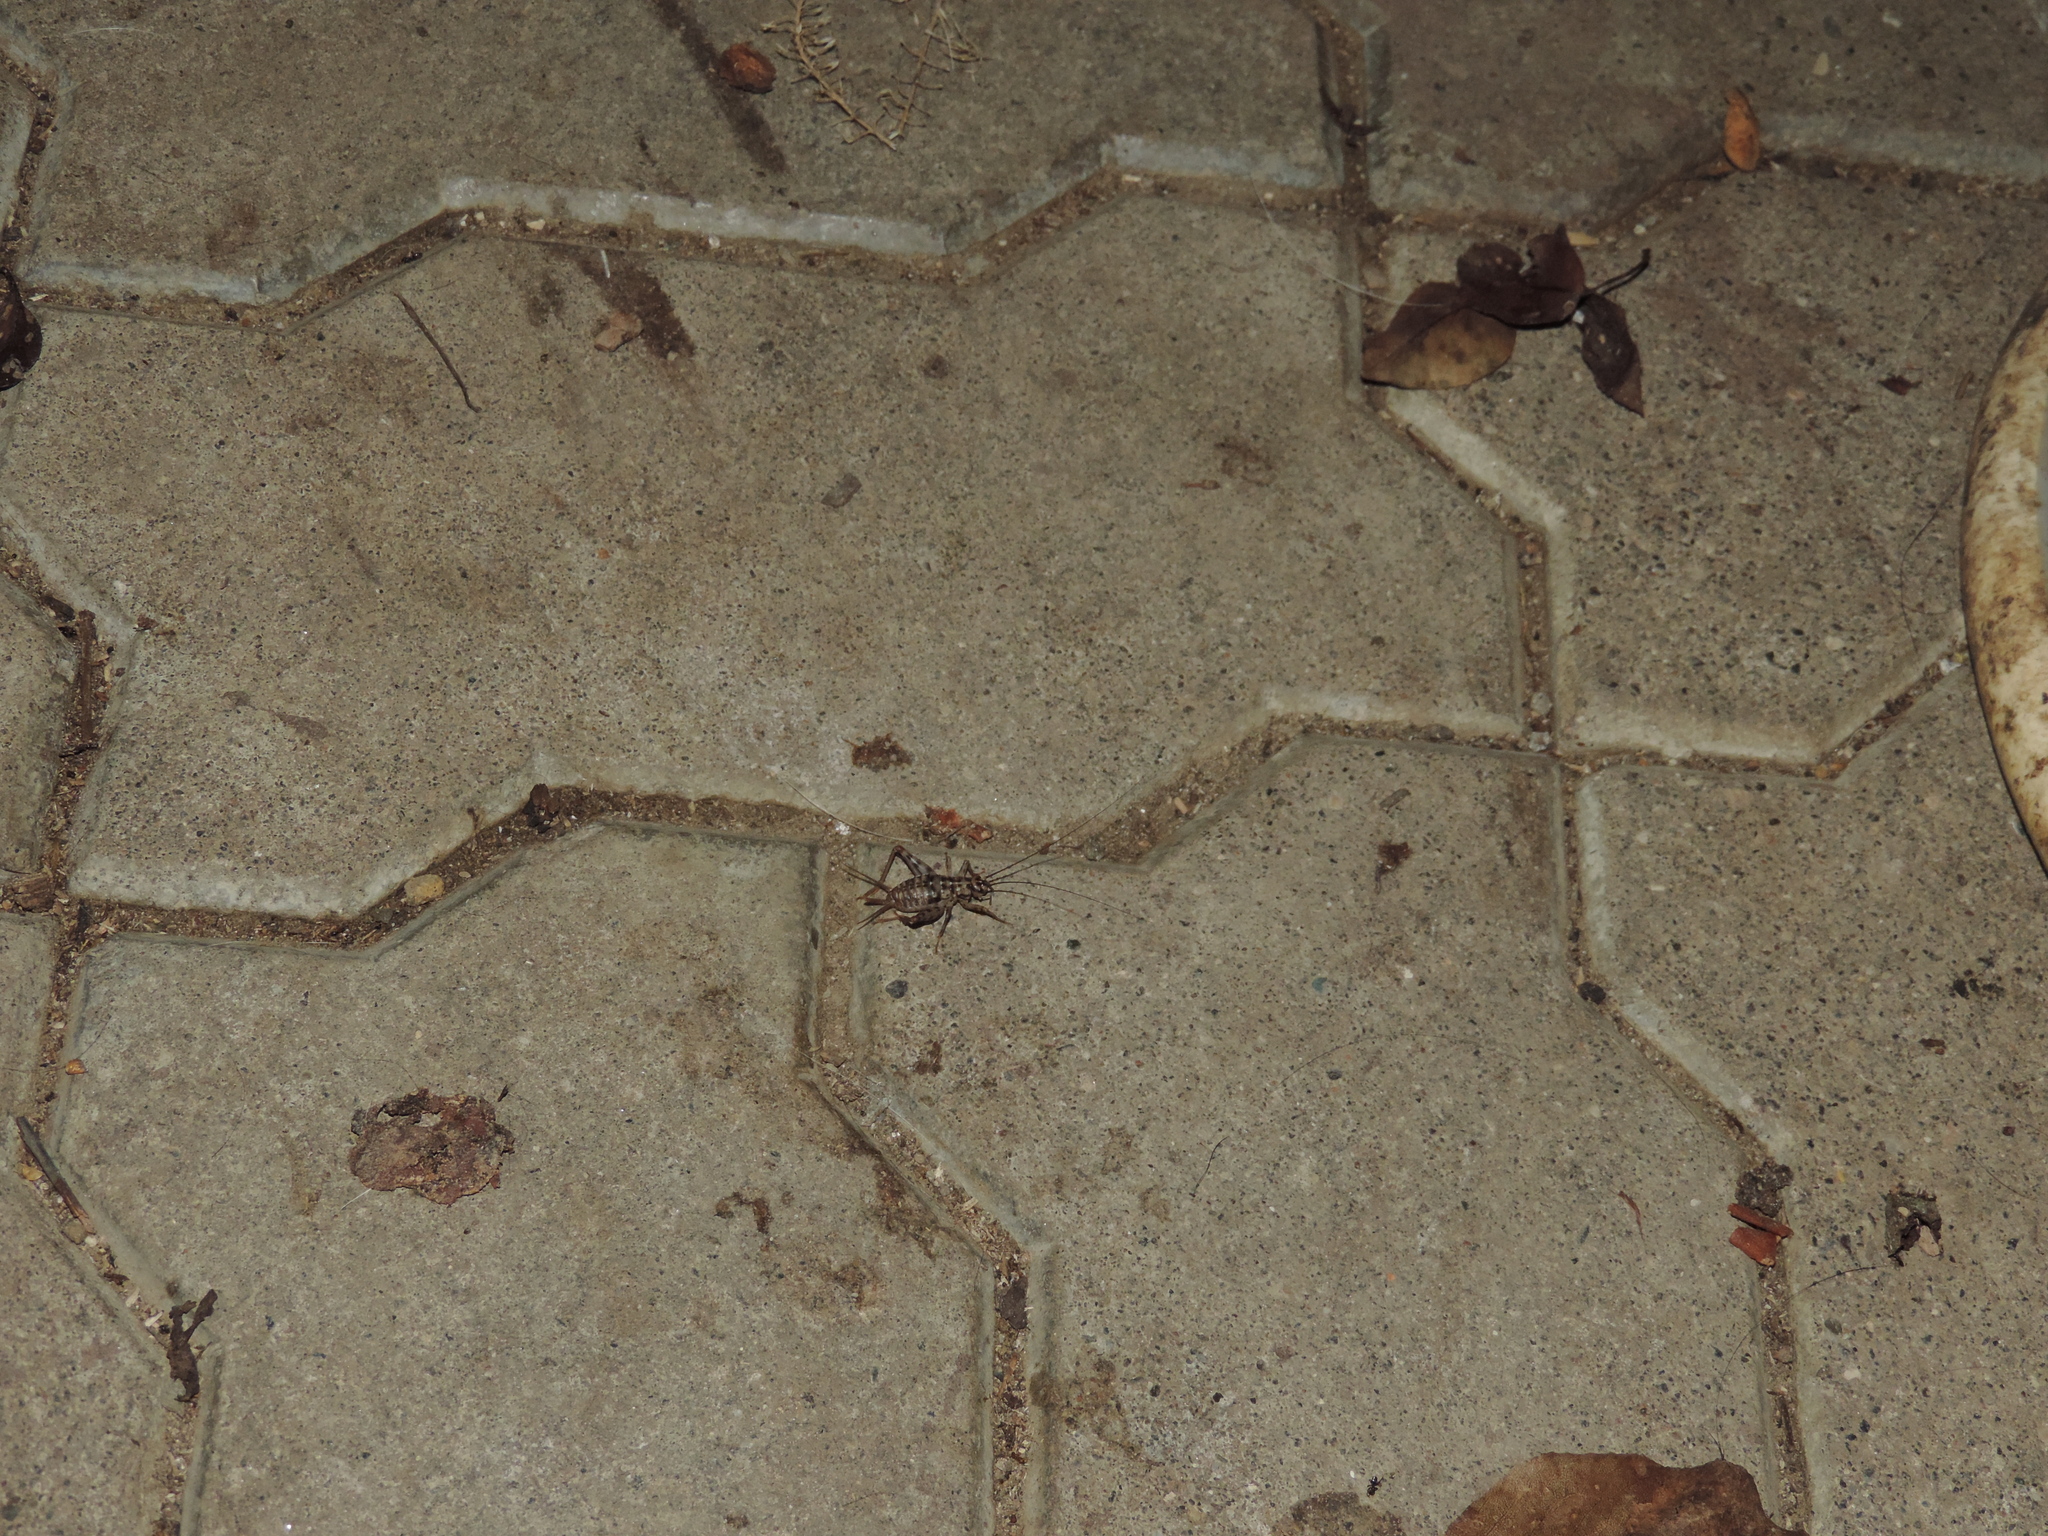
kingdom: Animalia
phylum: Arthropoda
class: Insecta
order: Orthoptera
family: Gryllidae
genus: Gryllomorpha
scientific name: Gryllomorpha dalmatina
